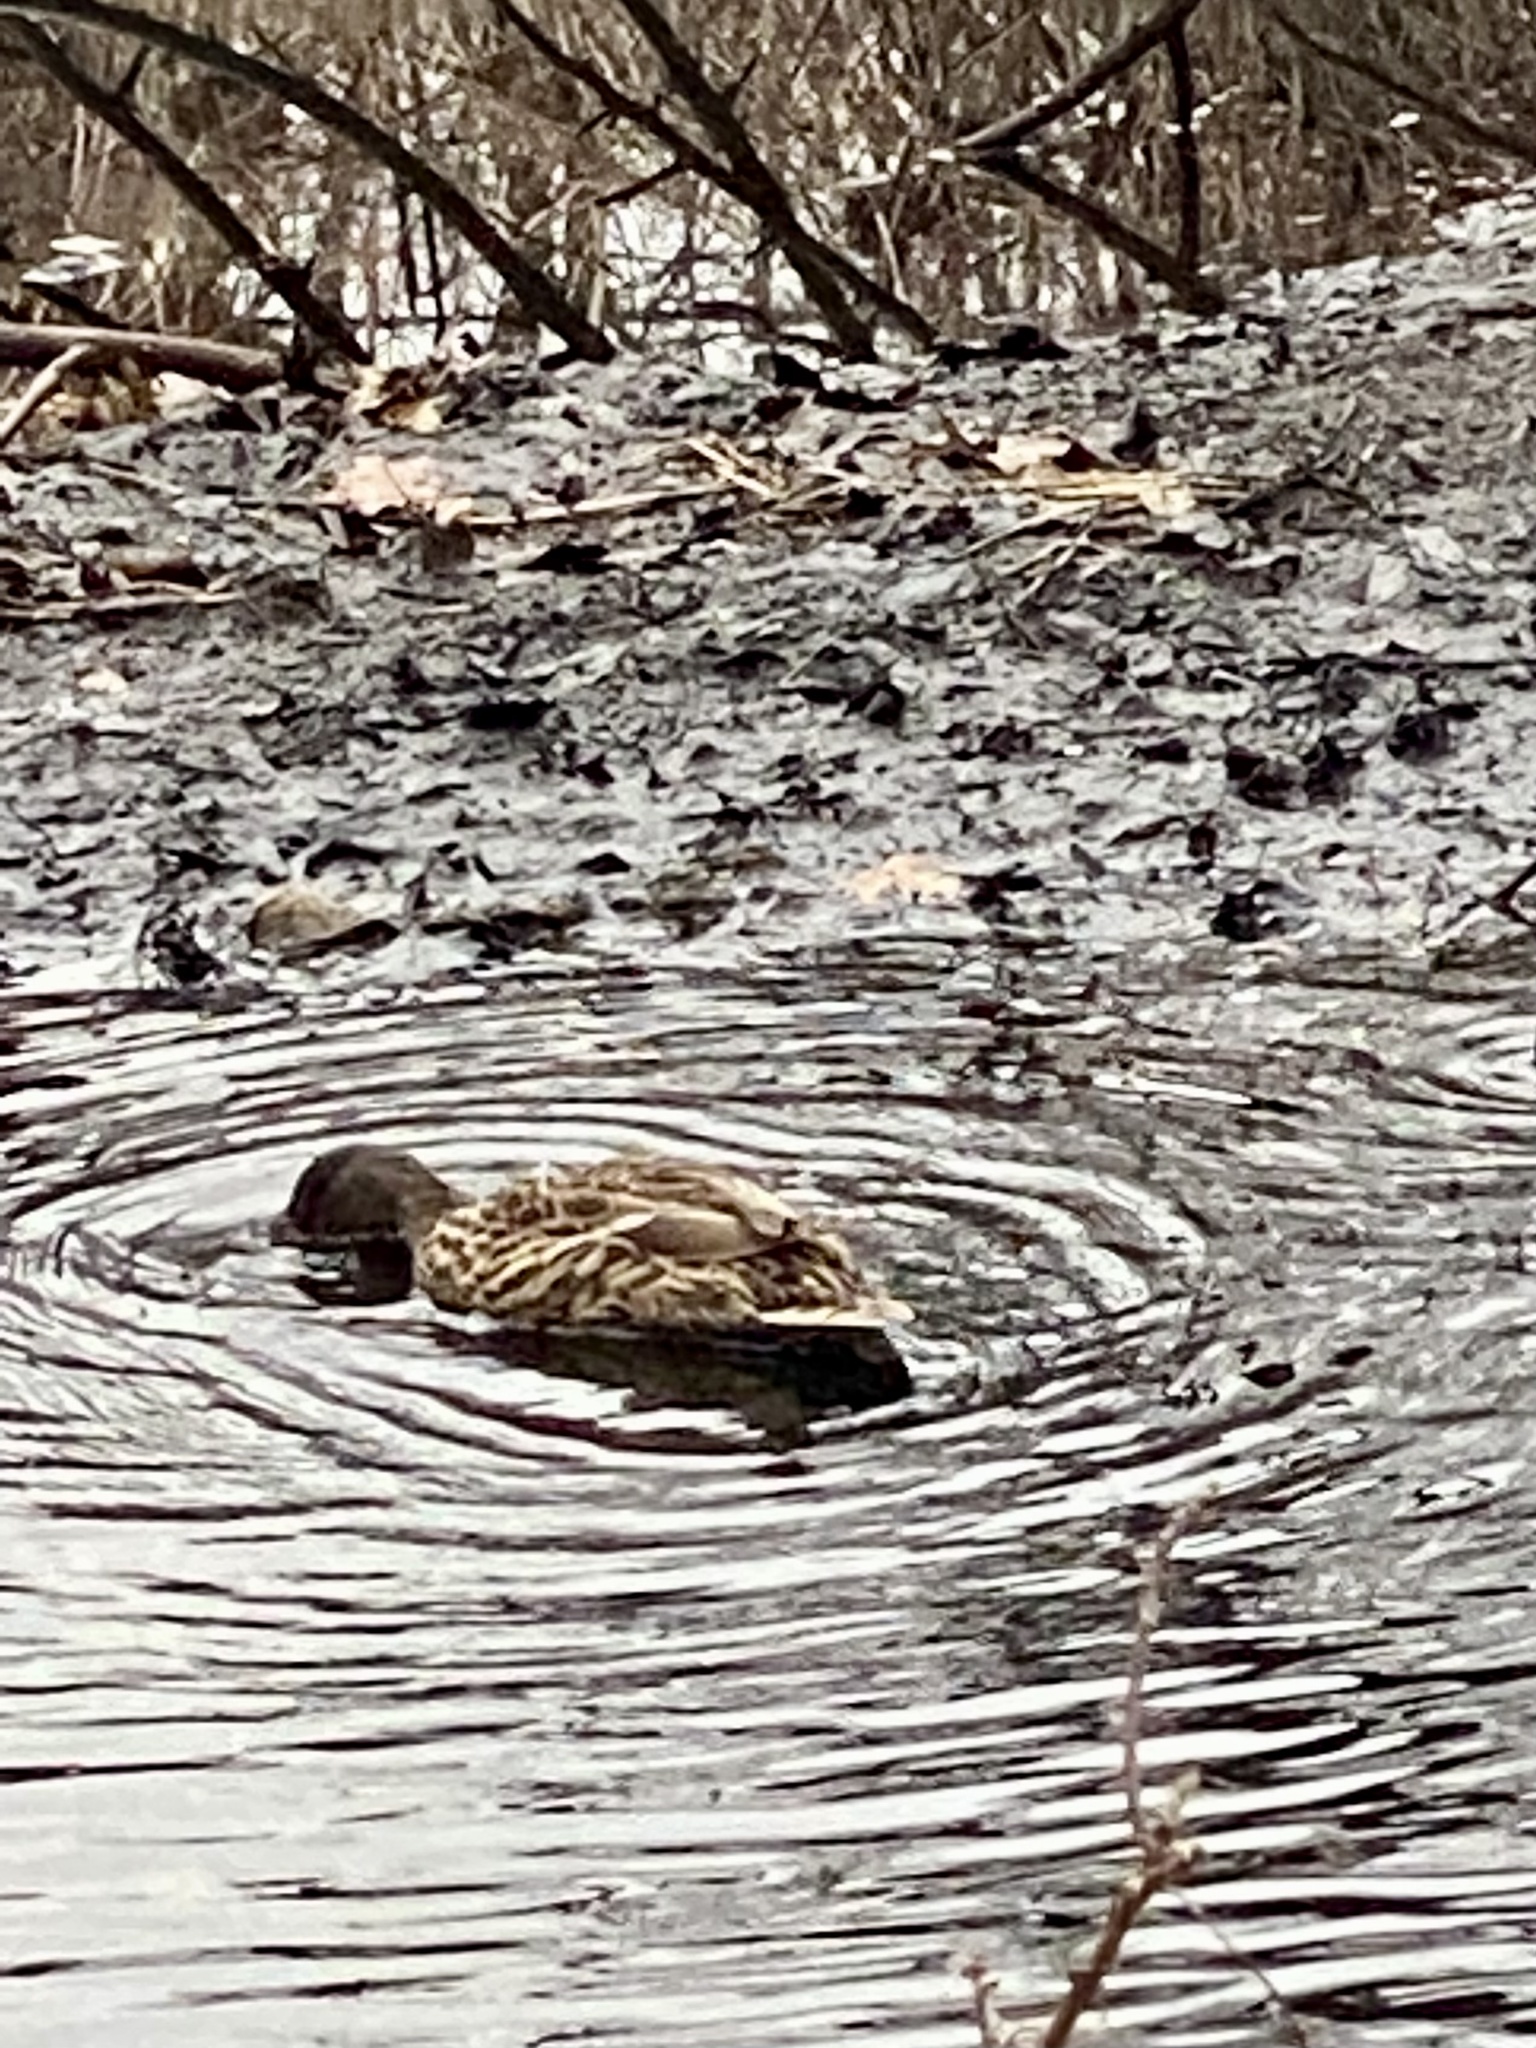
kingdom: Animalia
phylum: Chordata
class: Aves
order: Anseriformes
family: Anatidae
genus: Anas
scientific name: Anas platyrhynchos
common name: Mallard
